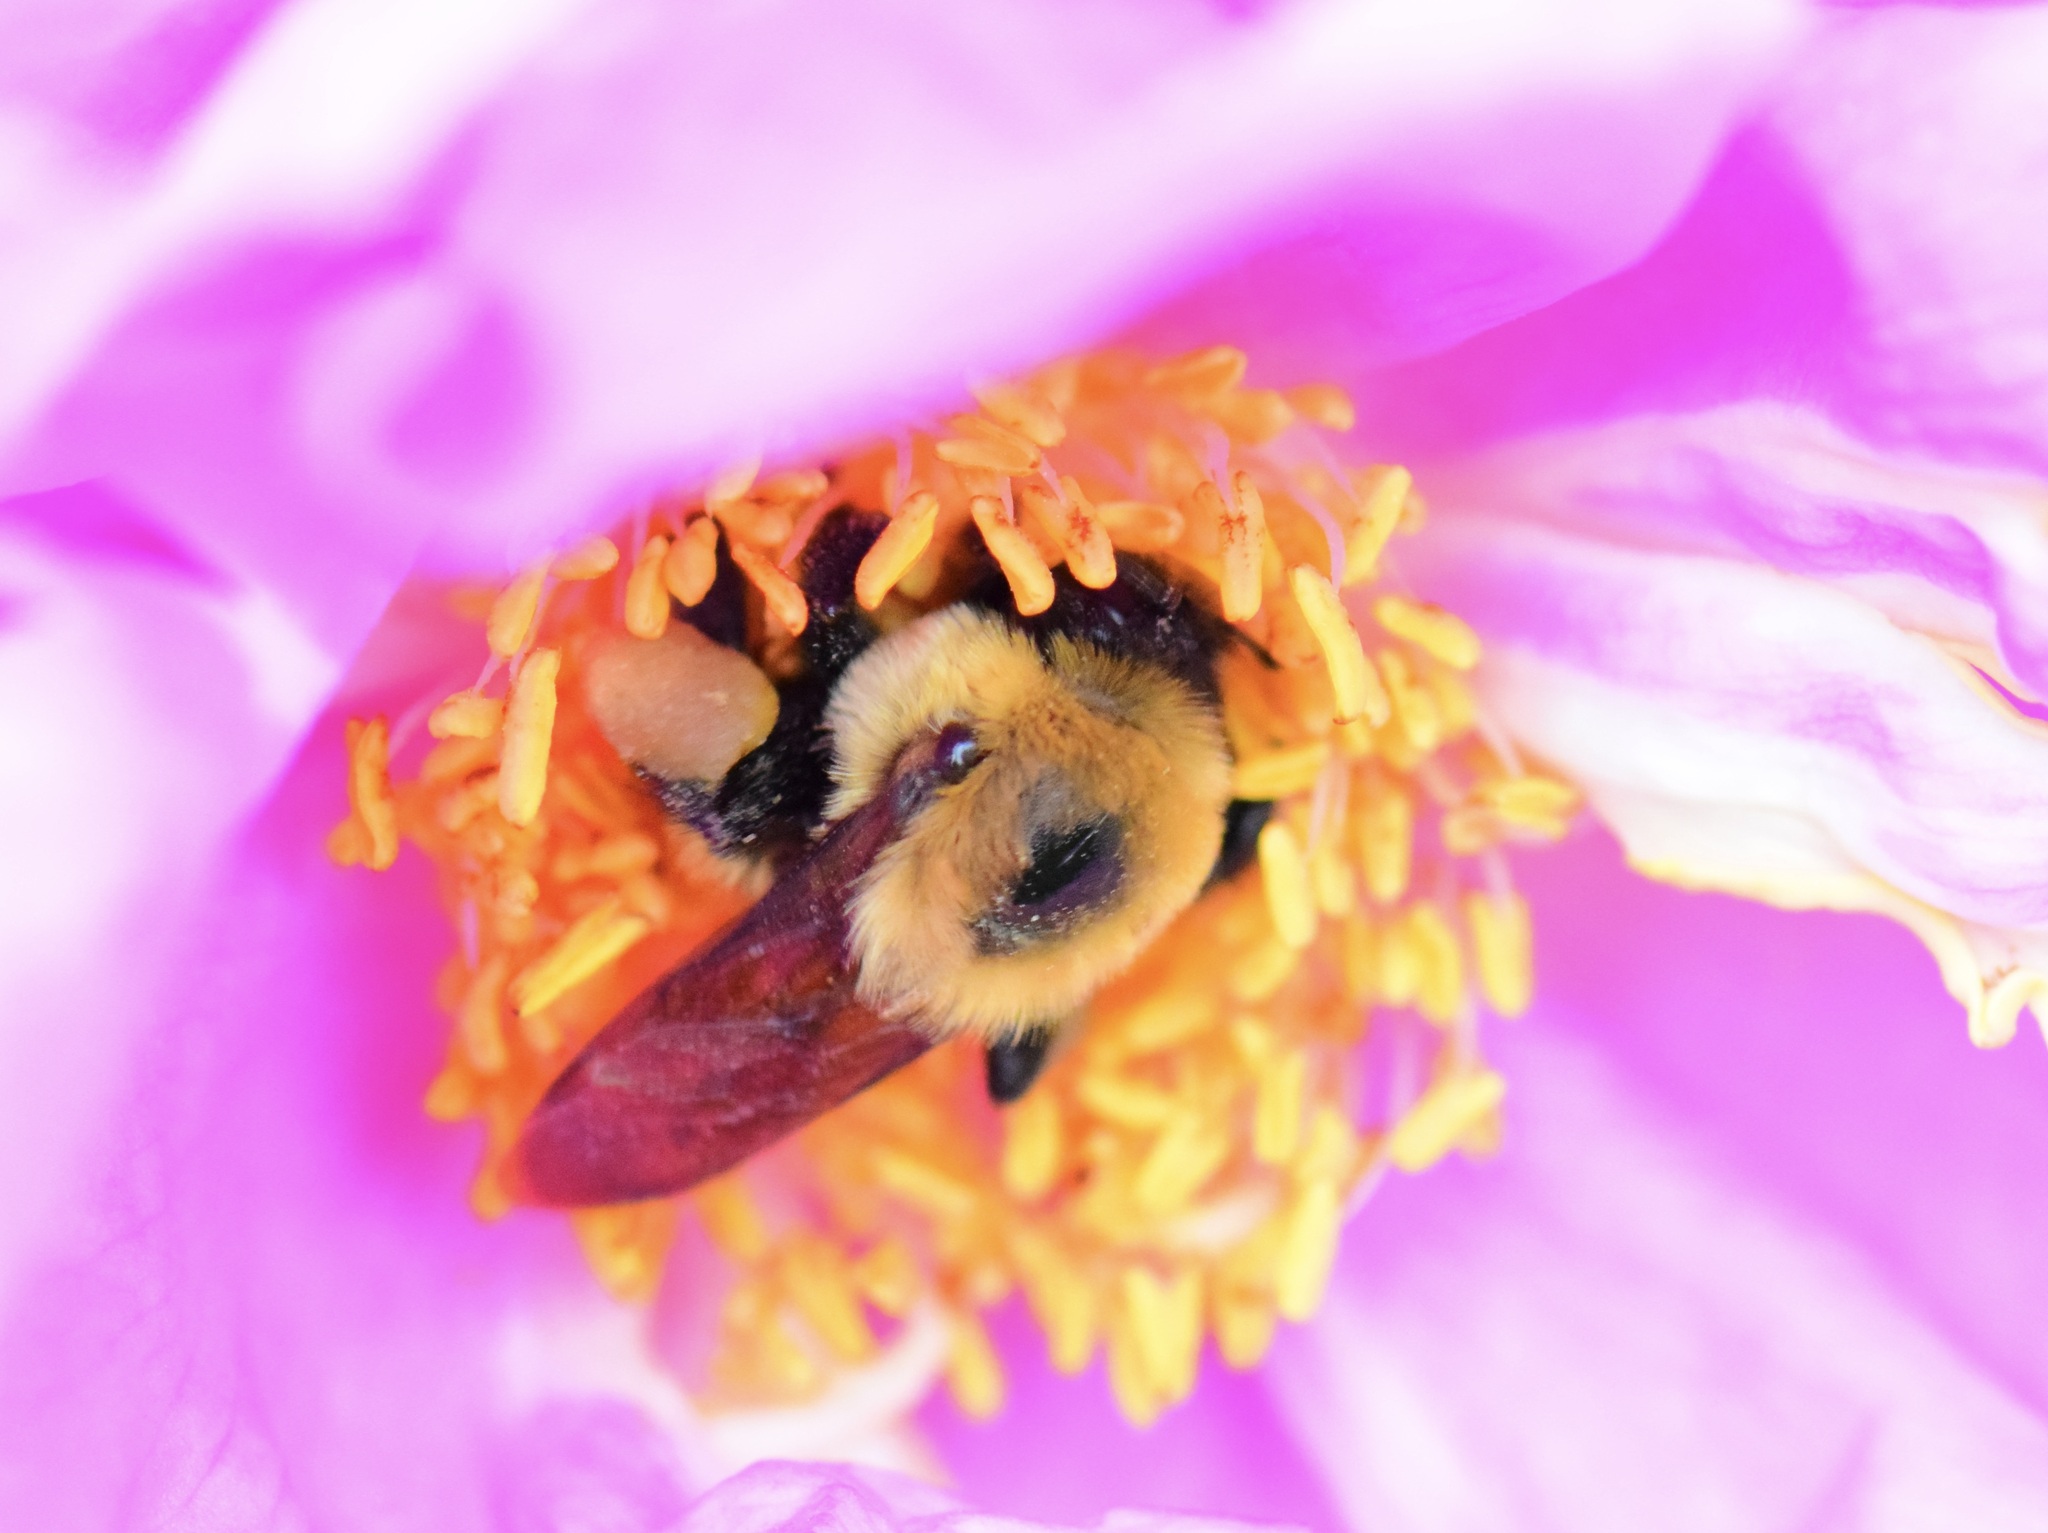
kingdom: Animalia
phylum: Arthropoda
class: Insecta
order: Hymenoptera
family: Apidae
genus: Bombus
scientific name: Bombus griseocollis
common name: Brown-belted bumble bee
